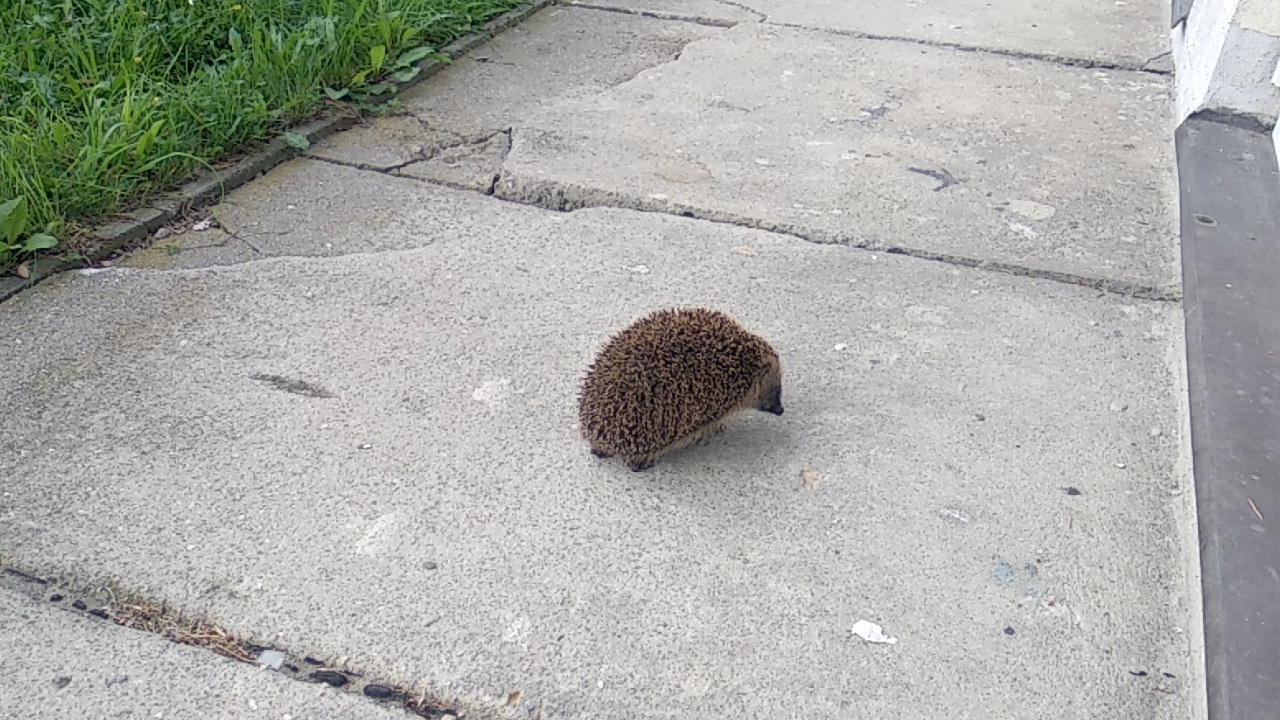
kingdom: Animalia
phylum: Chordata
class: Mammalia
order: Erinaceomorpha
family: Erinaceidae
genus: Erinaceus
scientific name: Erinaceus europaeus
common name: West european hedgehog
